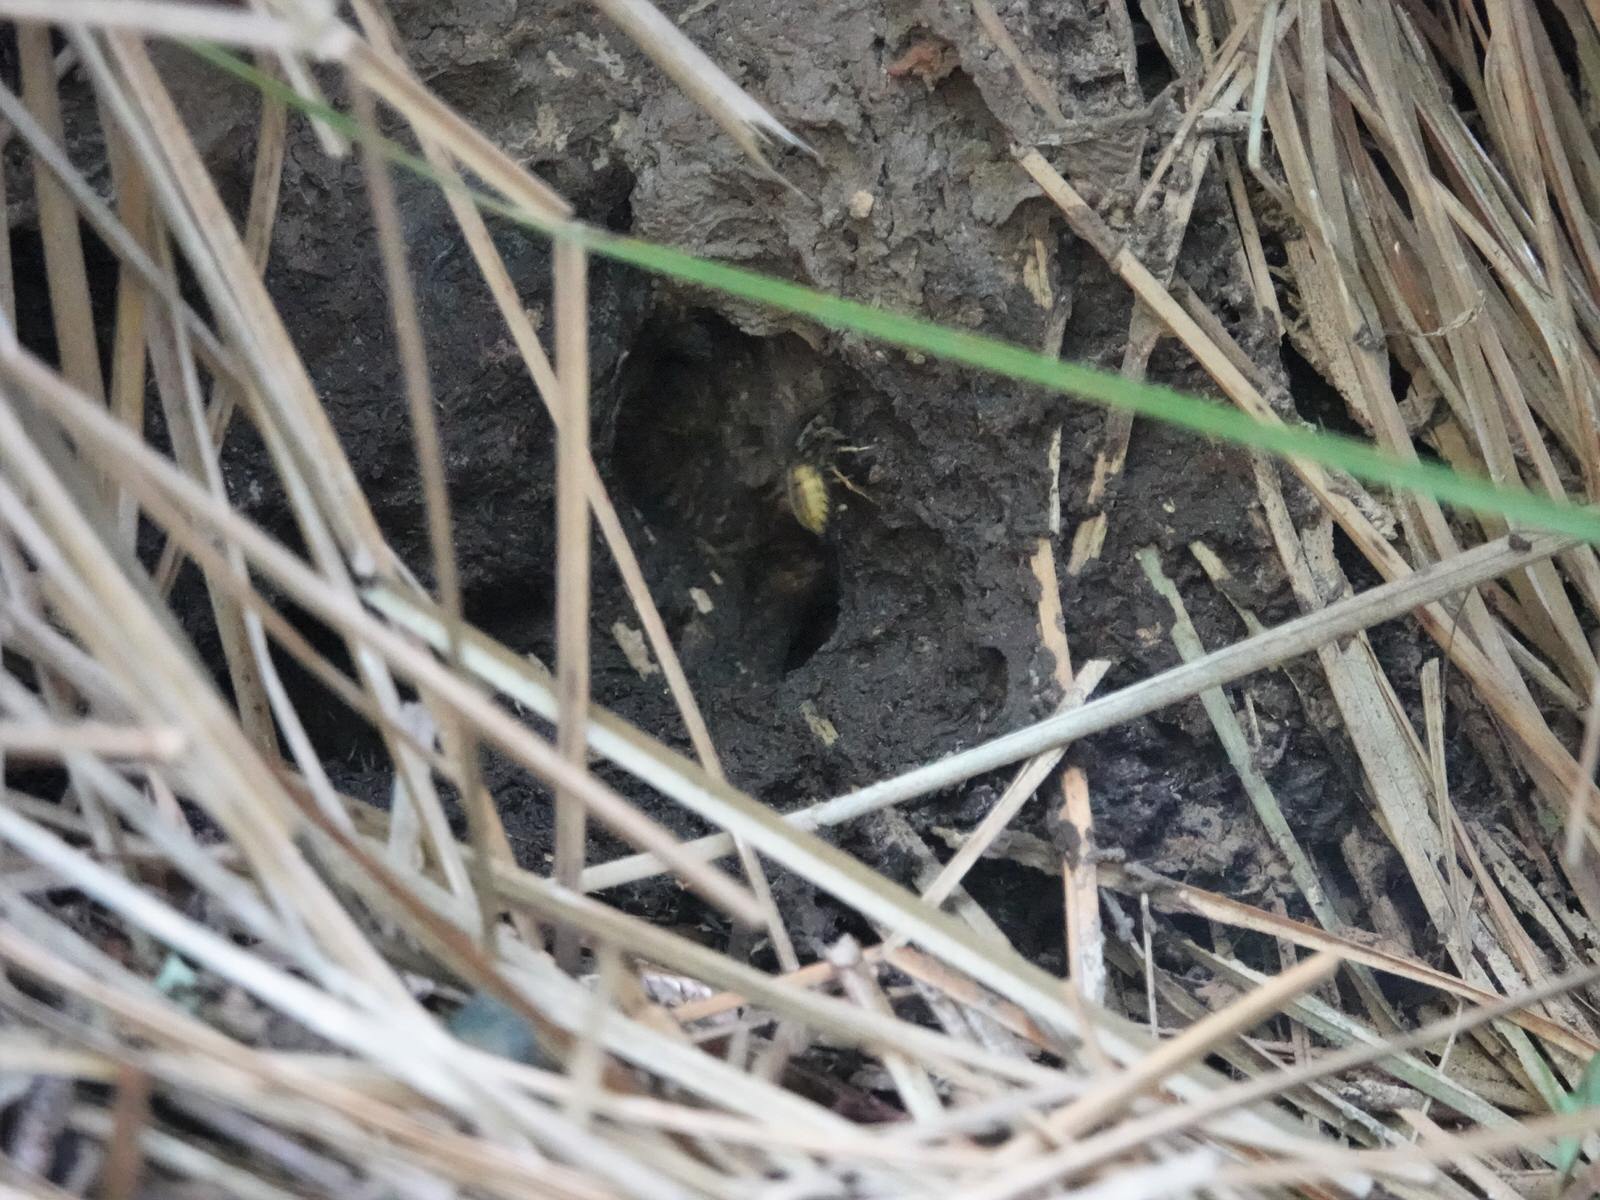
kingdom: Animalia
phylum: Arthropoda
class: Insecta
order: Hymenoptera
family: Vespidae
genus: Vespula
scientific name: Vespula vulgaris
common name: Common wasp
